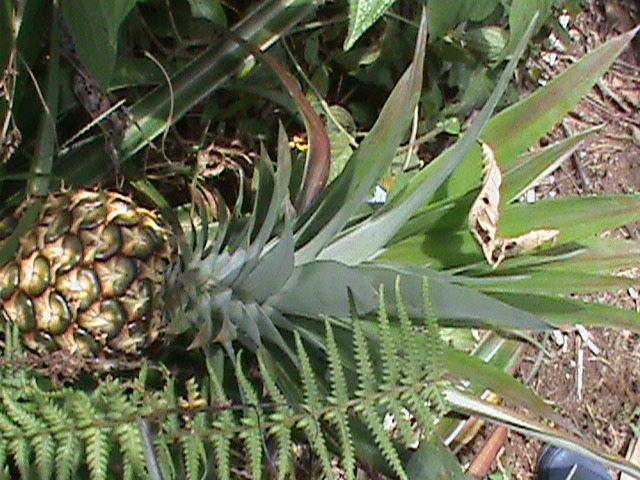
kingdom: Plantae
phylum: Tracheophyta
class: Liliopsida
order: Poales
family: Bromeliaceae
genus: Ananas
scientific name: Ananas comosus
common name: Pineapple
